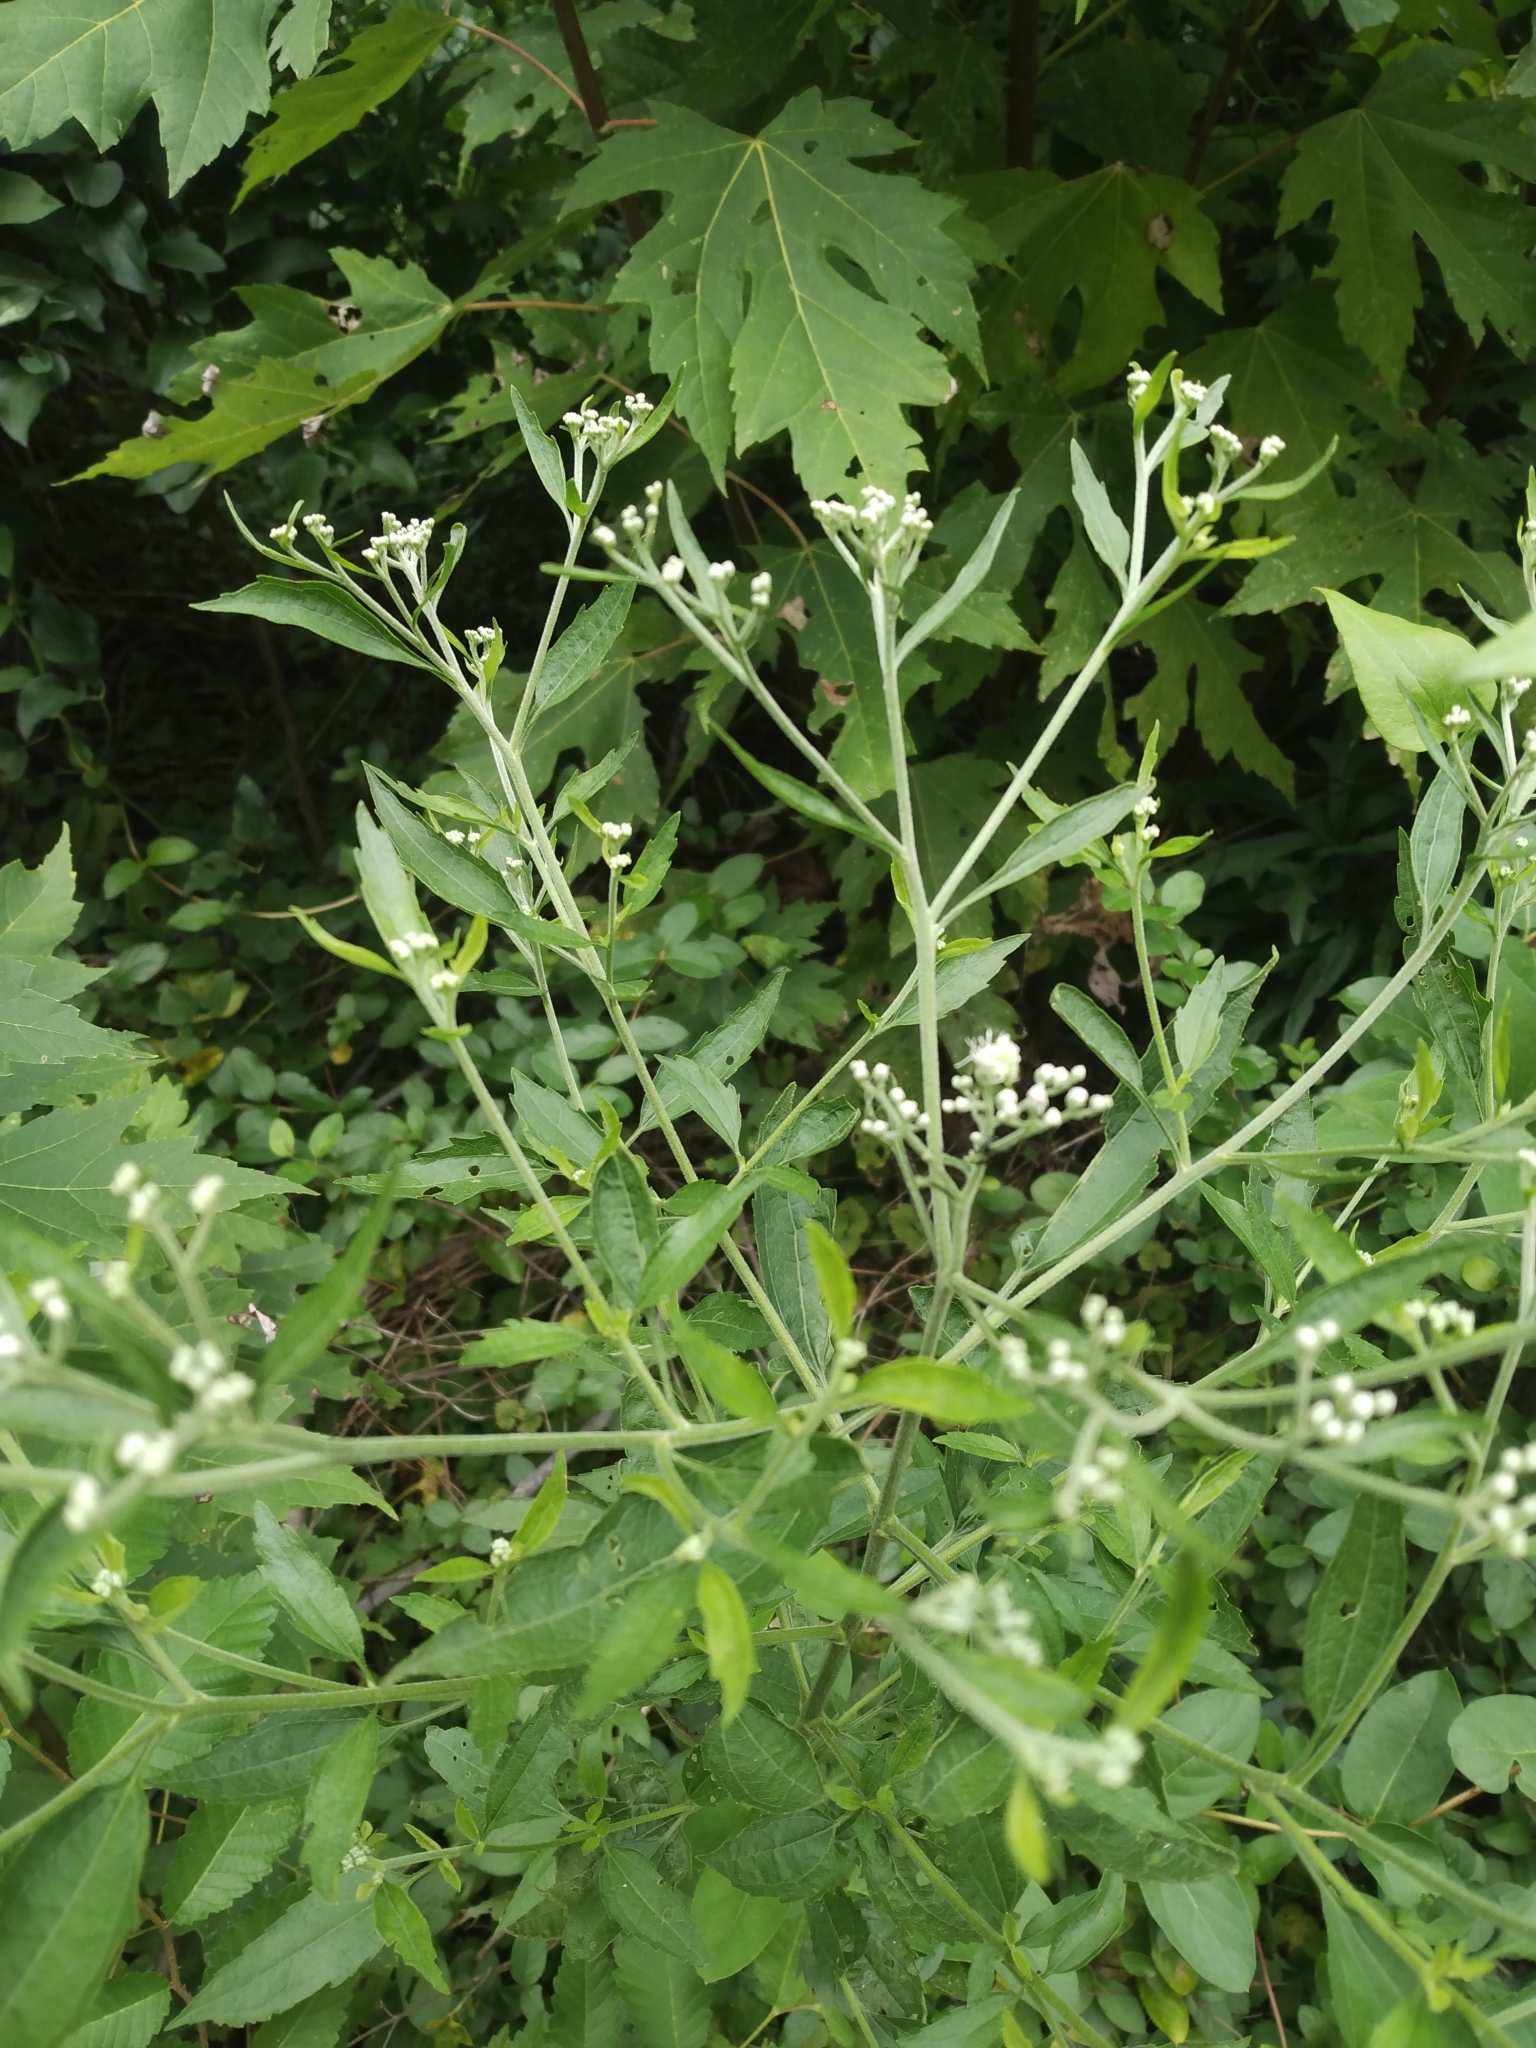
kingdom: Plantae
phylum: Tracheophyta
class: Magnoliopsida
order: Asterales
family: Asteraceae
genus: Eupatorium
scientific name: Eupatorium serotinum
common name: Late boneset
